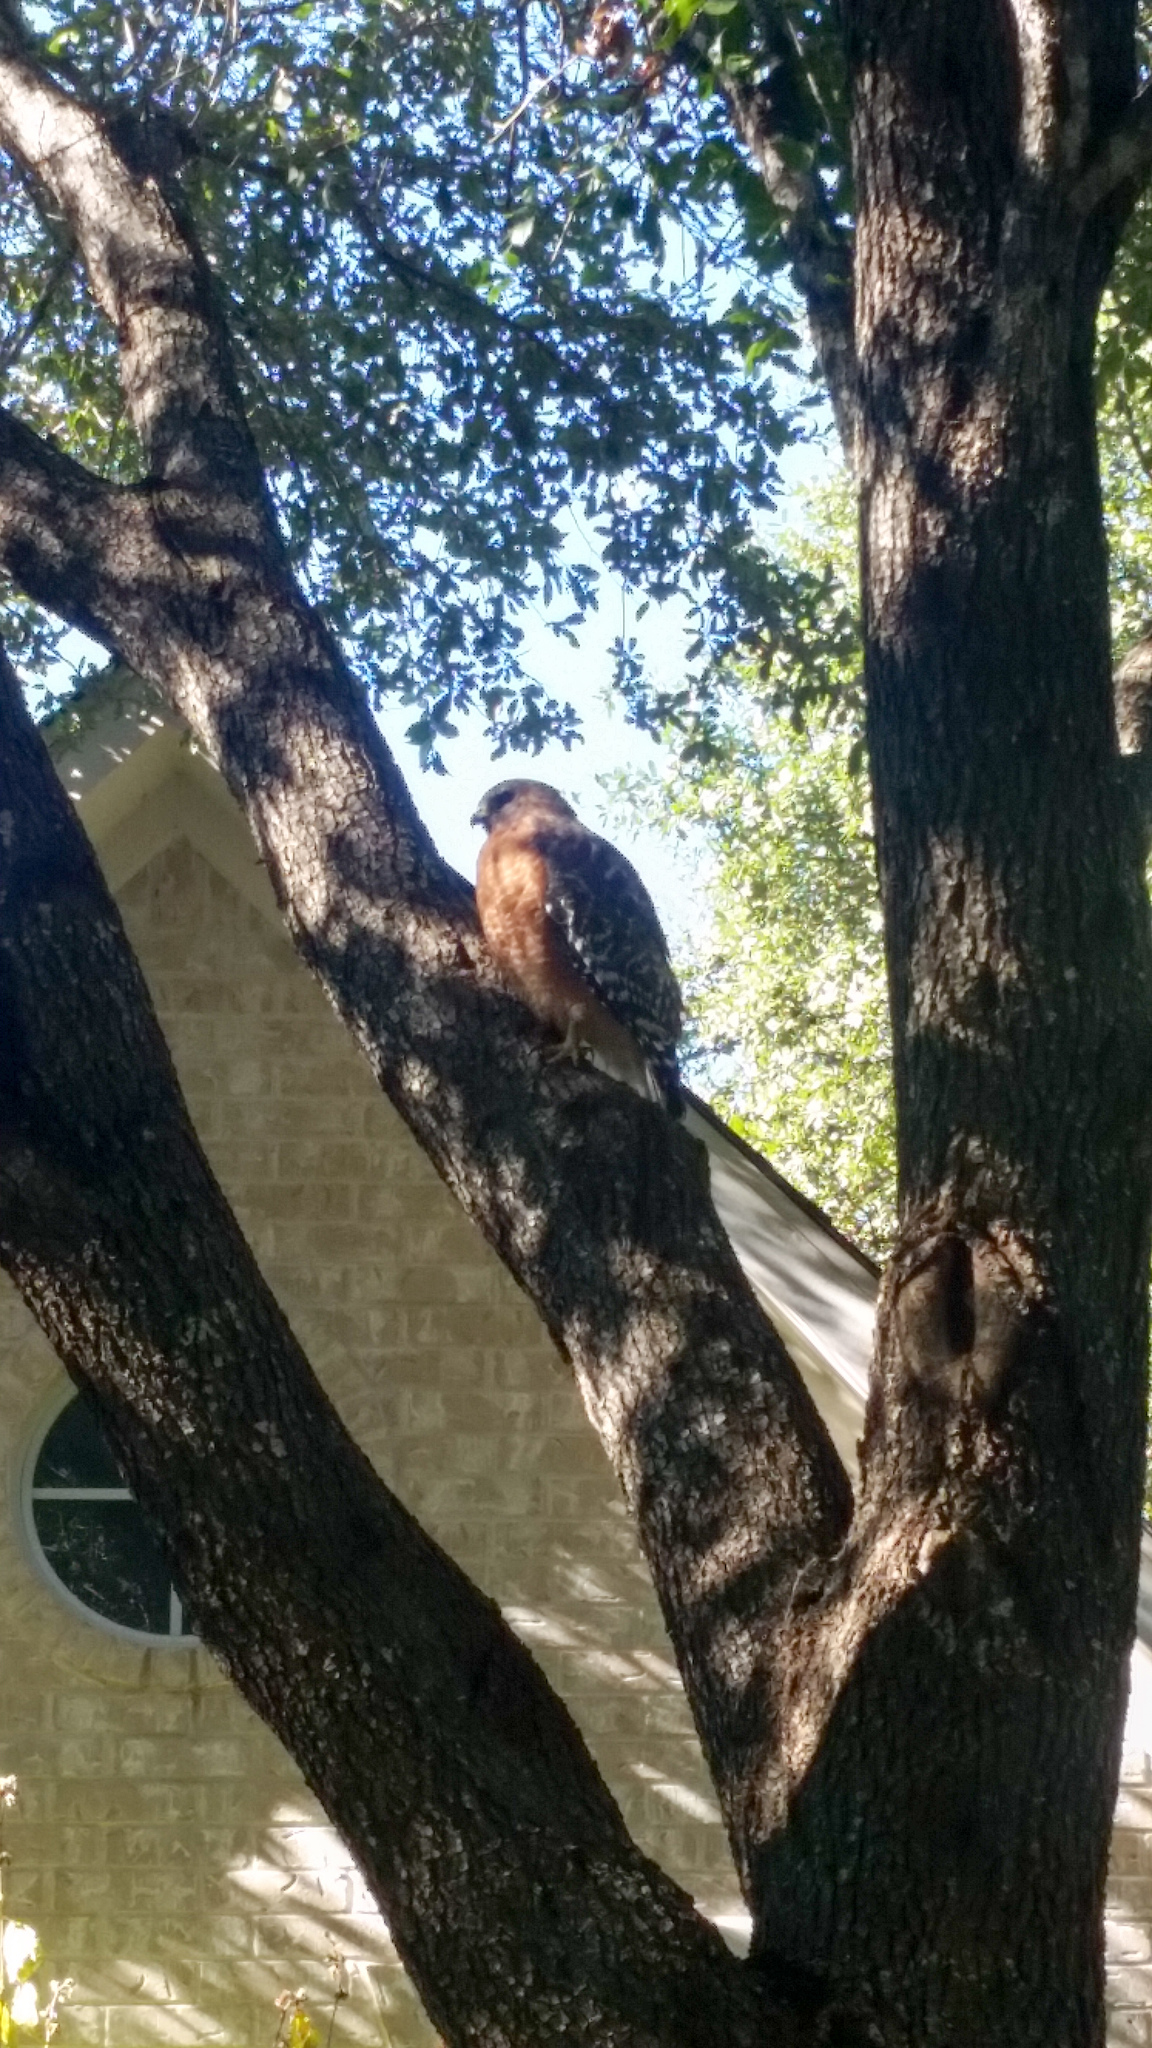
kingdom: Animalia
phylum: Chordata
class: Aves
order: Accipitriformes
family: Accipitridae
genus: Buteo
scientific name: Buteo lineatus
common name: Red-shouldered hawk
